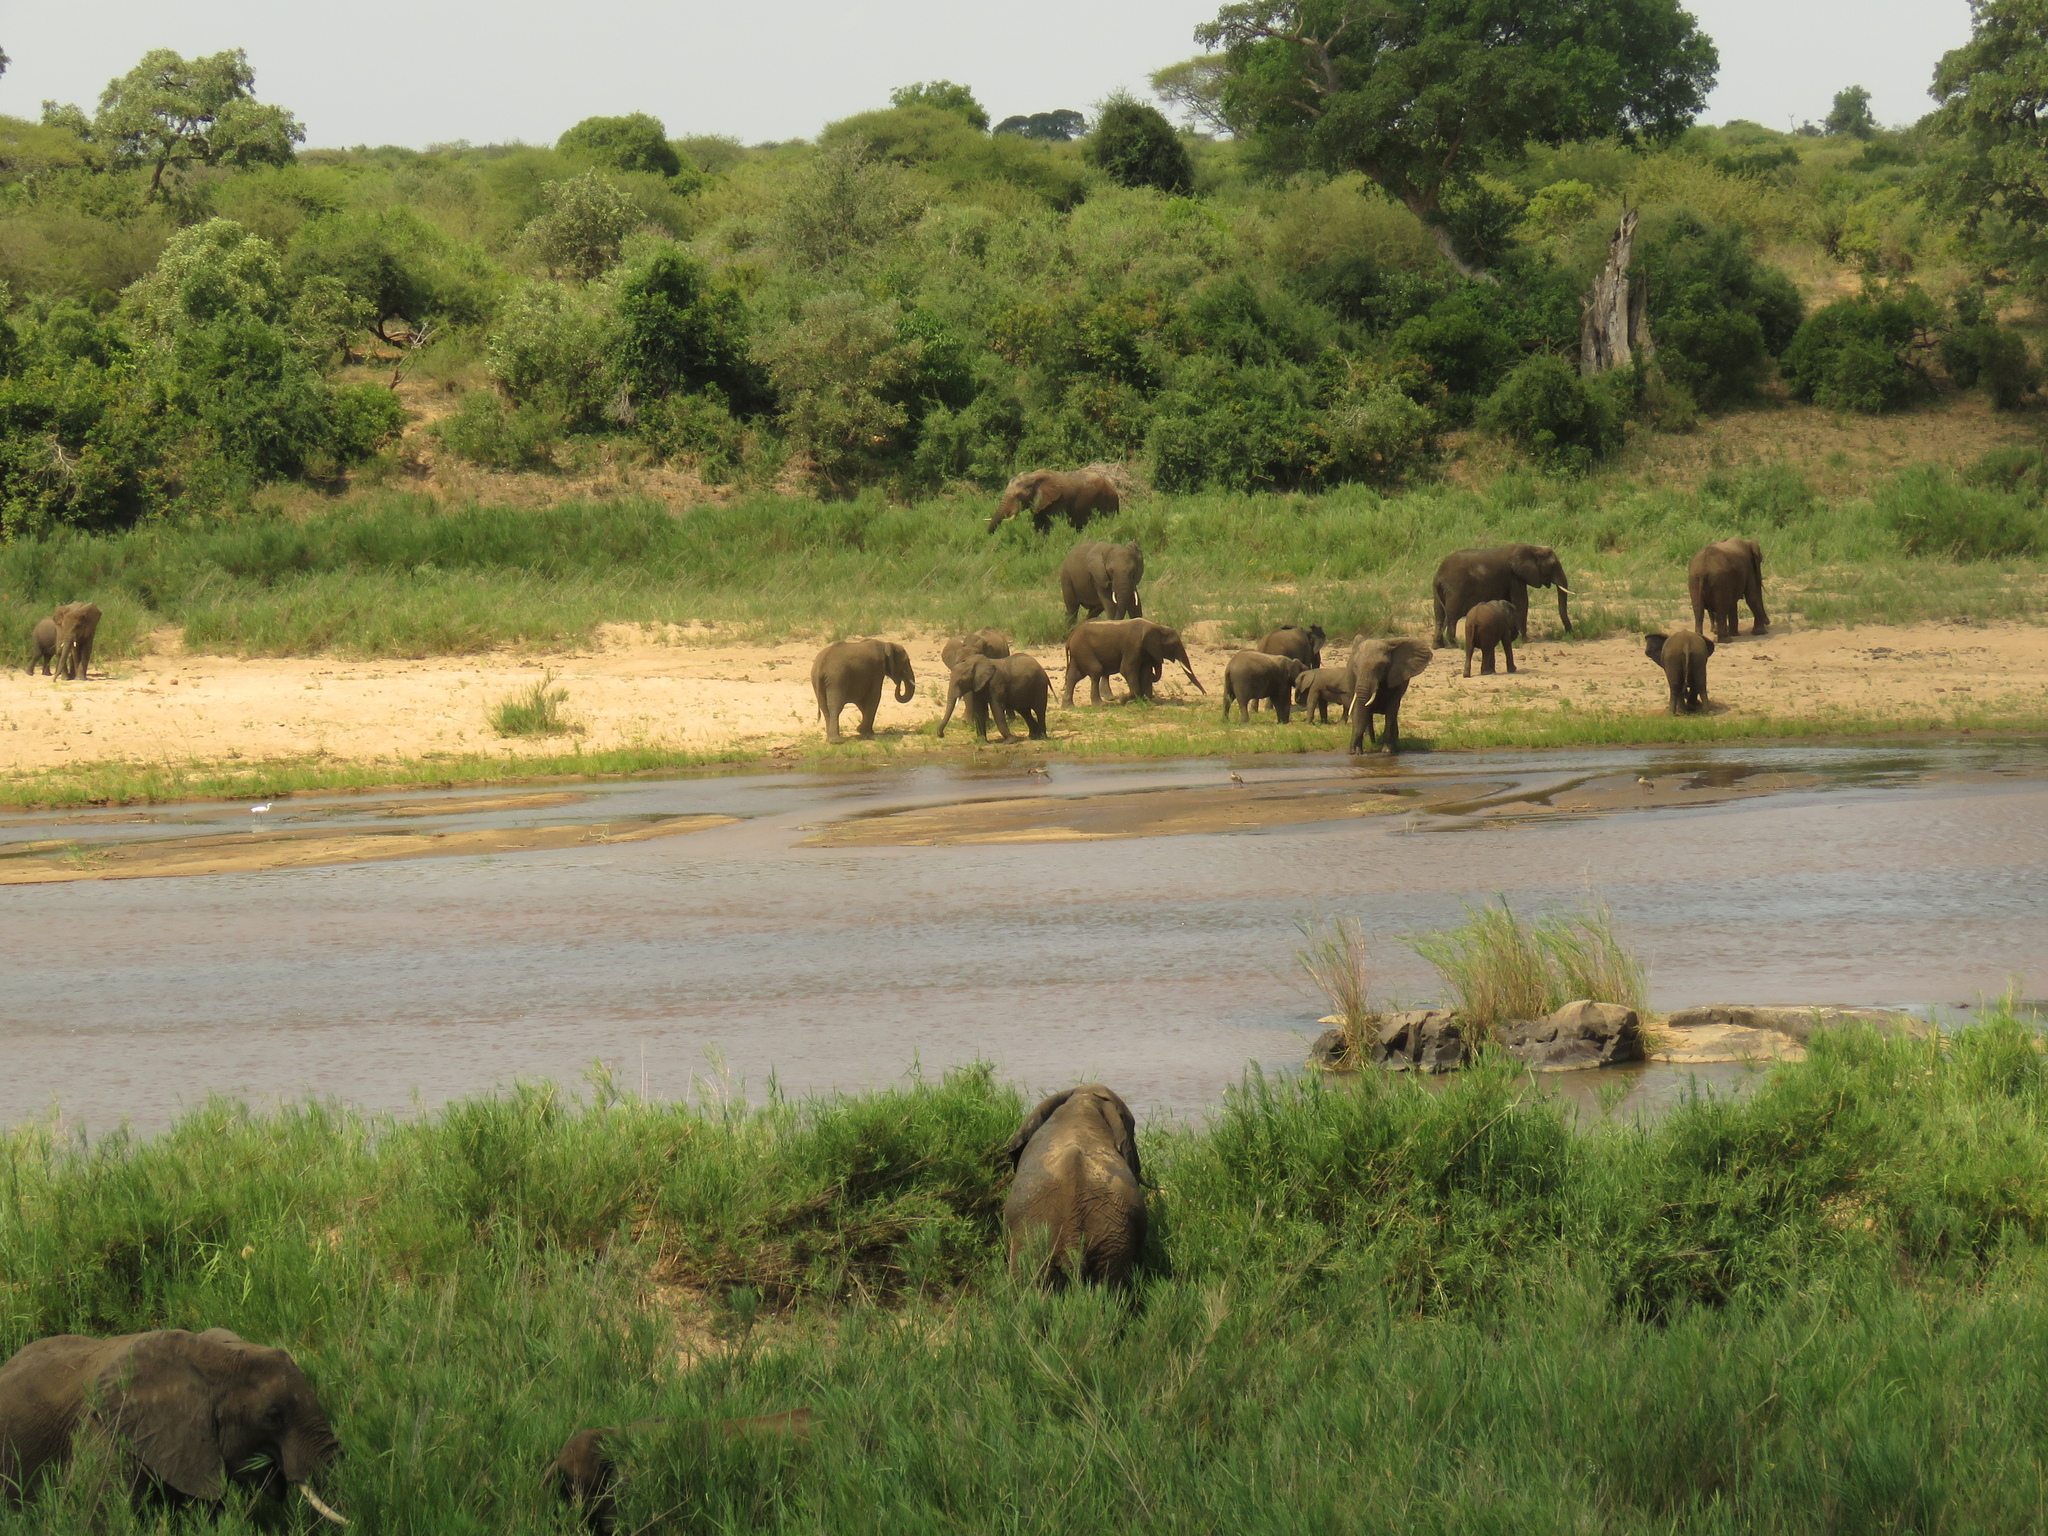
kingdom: Animalia
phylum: Chordata
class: Mammalia
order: Proboscidea
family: Elephantidae
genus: Loxodonta
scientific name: Loxodonta africana
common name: African elephant
